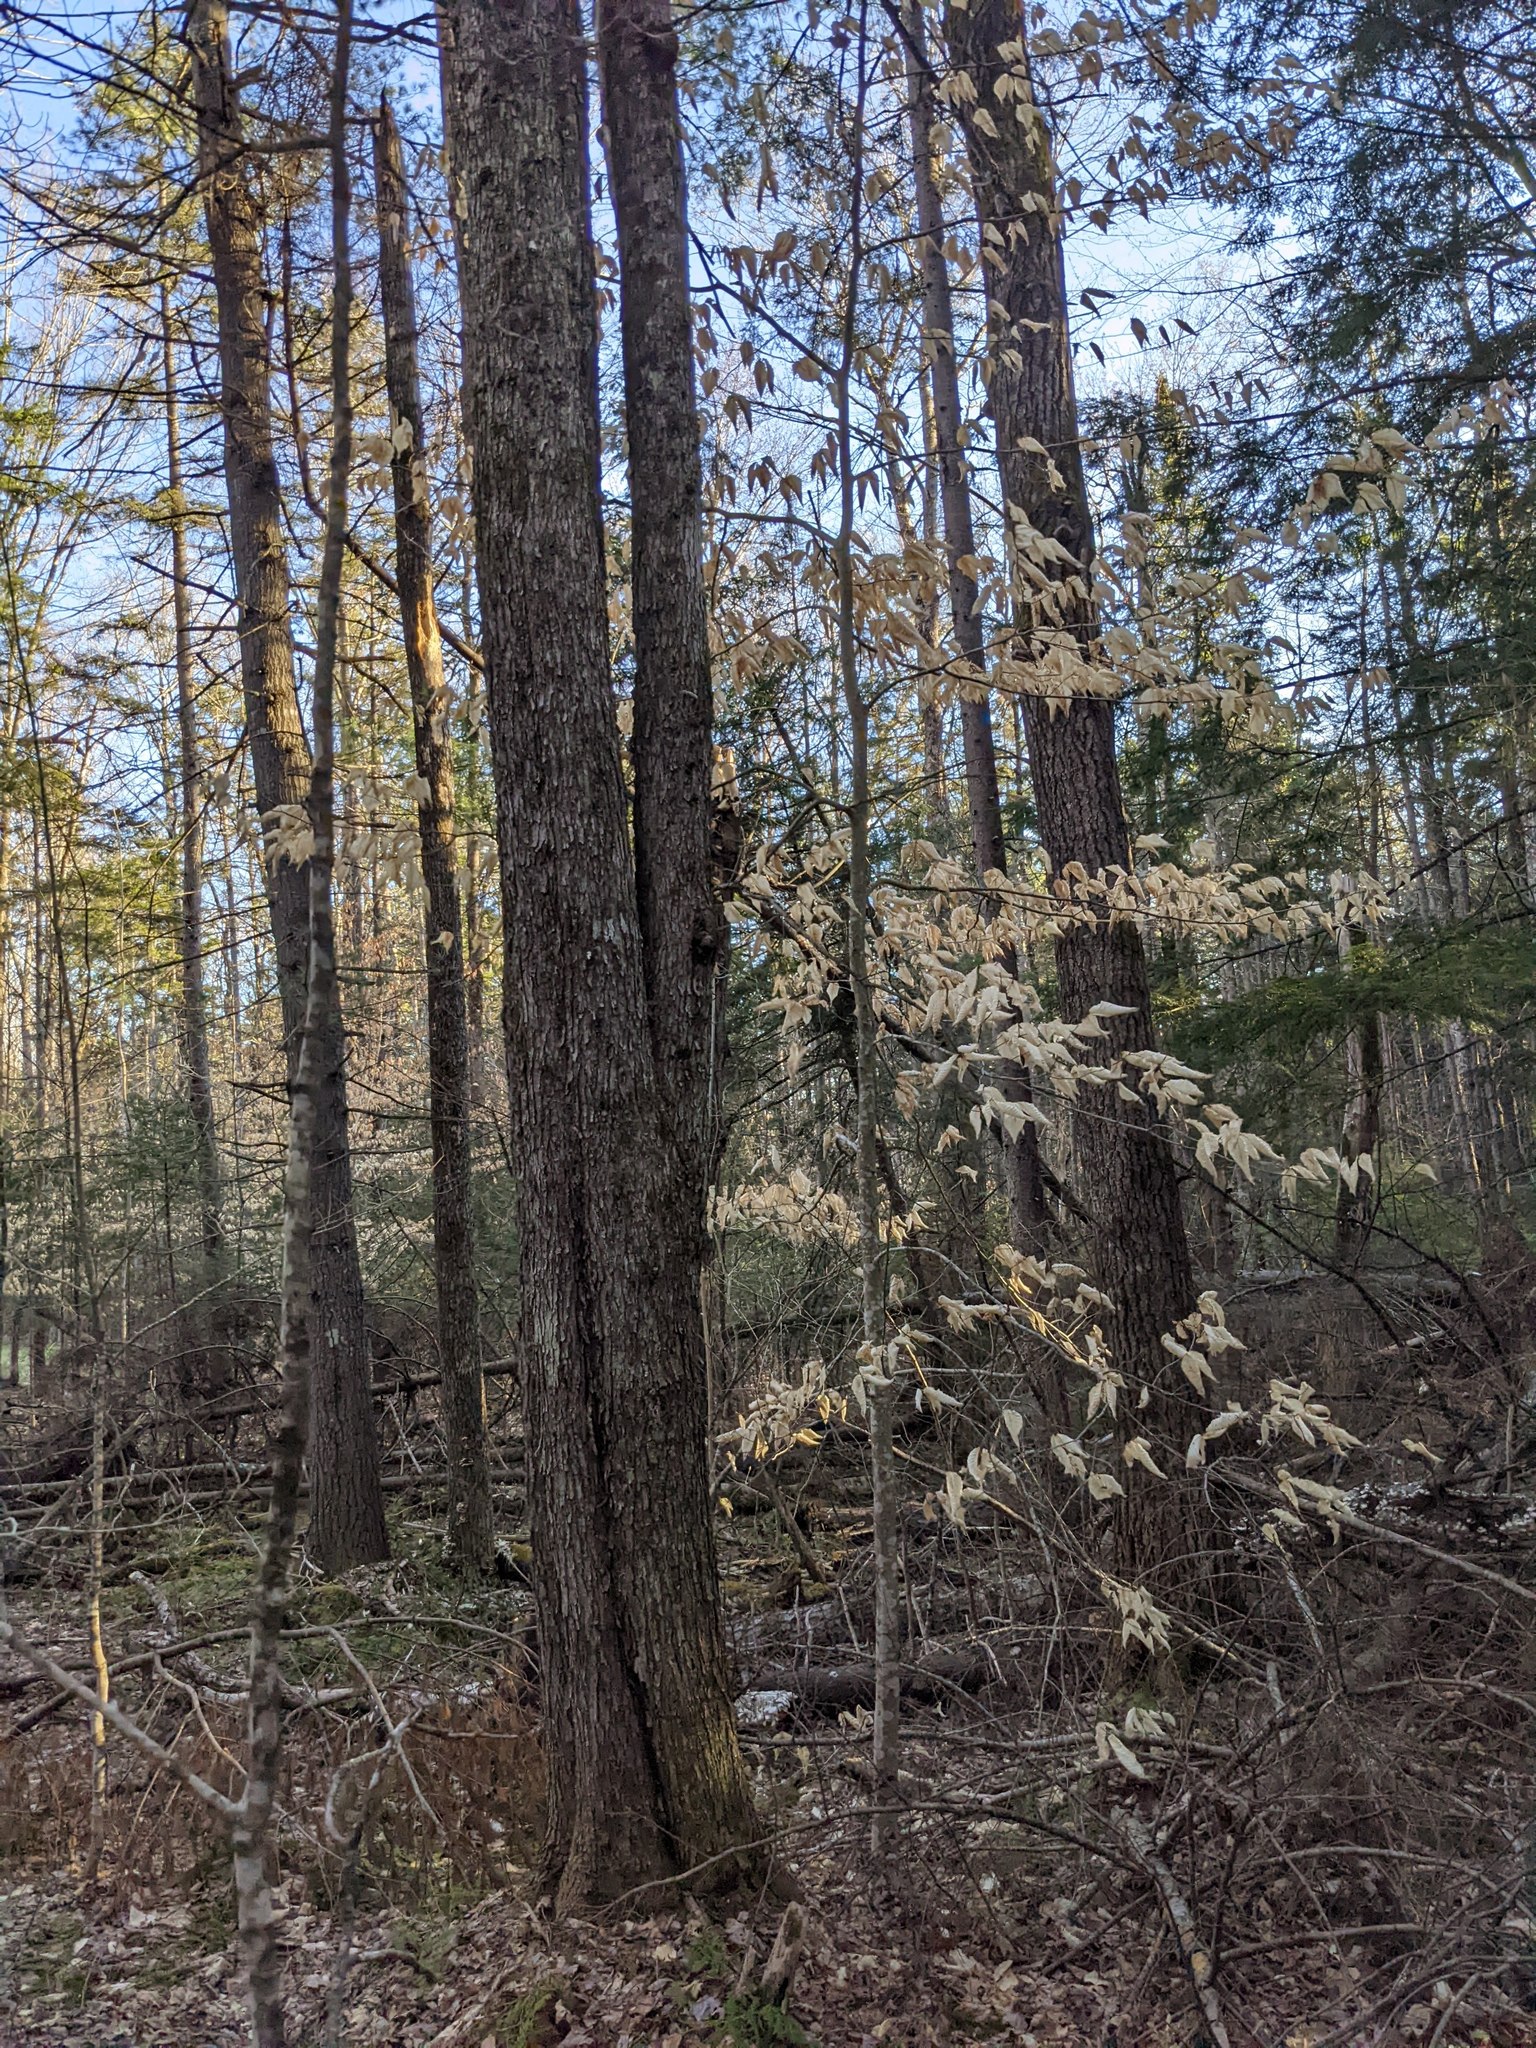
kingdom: Plantae
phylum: Tracheophyta
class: Magnoliopsida
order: Fagales
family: Fagaceae
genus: Fagus
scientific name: Fagus grandifolia
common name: American beech
